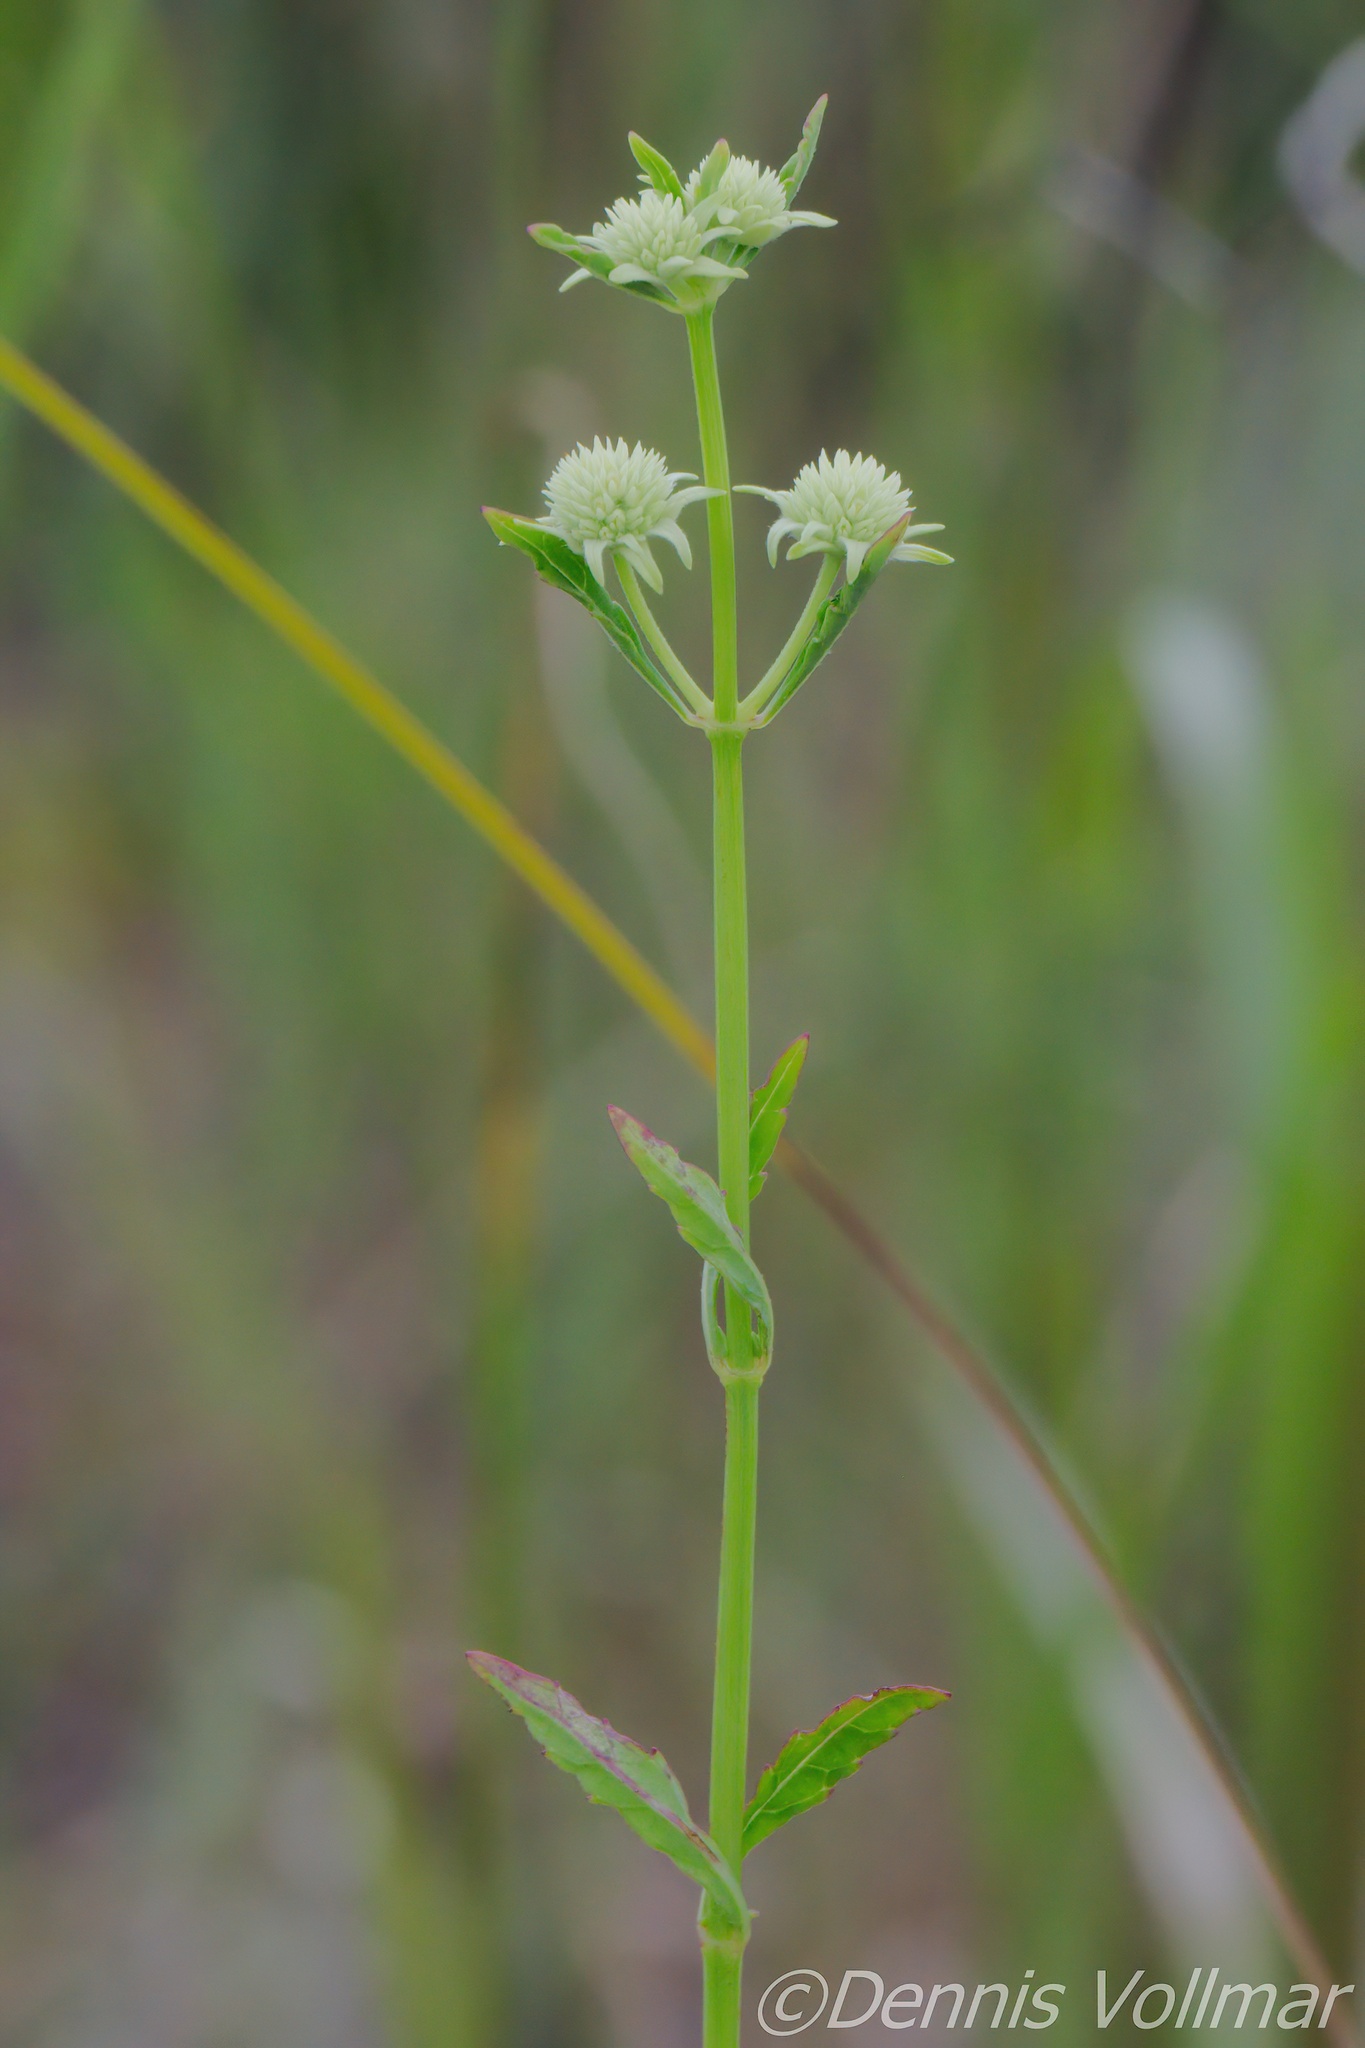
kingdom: Plantae
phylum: Tracheophyta
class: Magnoliopsida
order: Lamiales
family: Lamiaceae
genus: Hyptis
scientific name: Hyptis alata
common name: Cluster bush-mint
